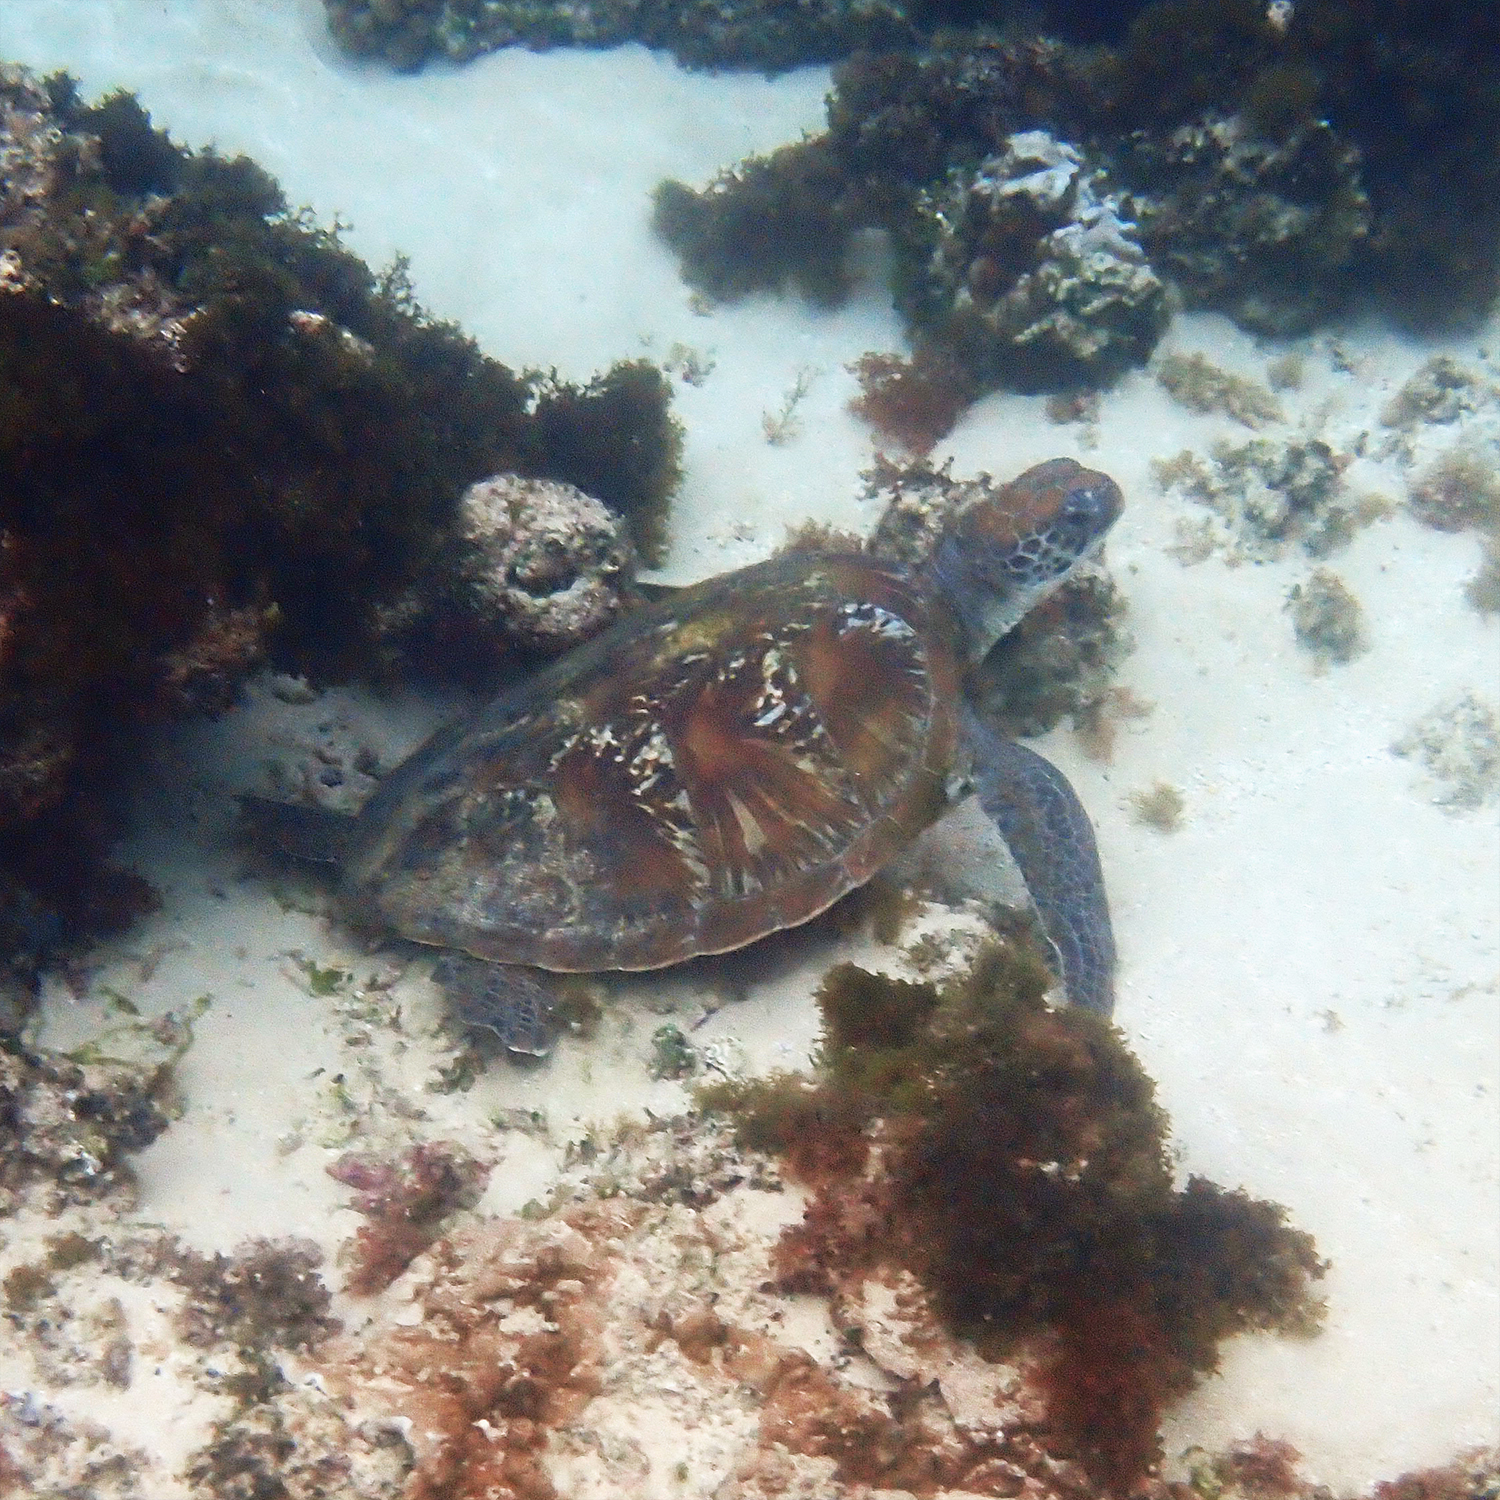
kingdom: Animalia
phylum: Chordata
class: Testudines
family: Cheloniidae
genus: Chelonia
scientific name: Chelonia mydas
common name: Green turtle
